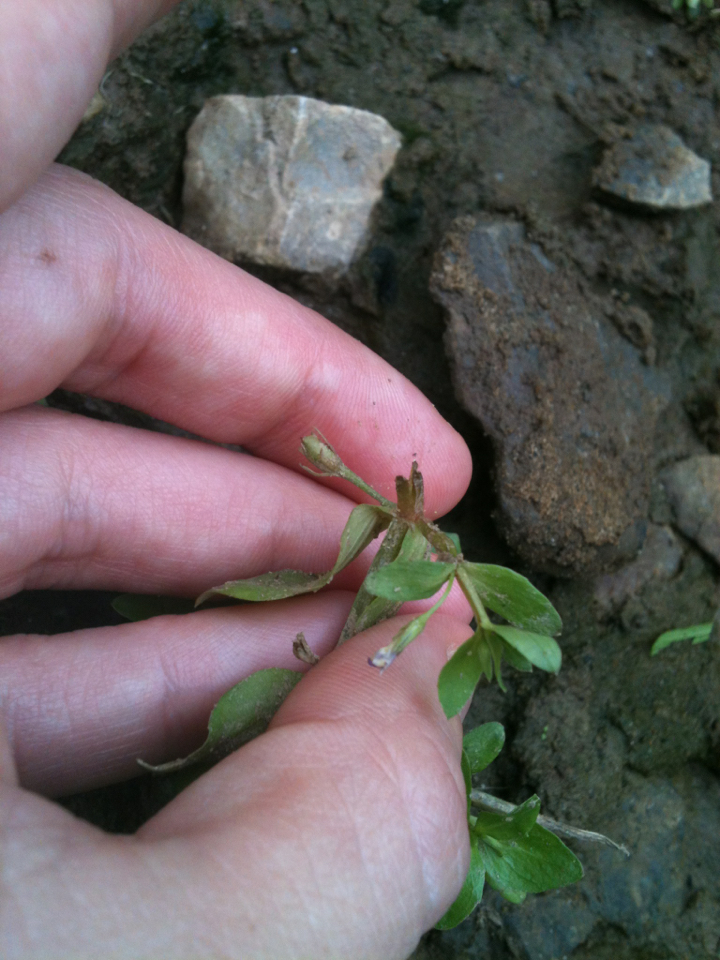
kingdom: Plantae
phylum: Tracheophyta
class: Magnoliopsida
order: Lamiales
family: Linderniaceae
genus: Lindernia
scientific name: Lindernia dubia
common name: Annual false pimpernel
